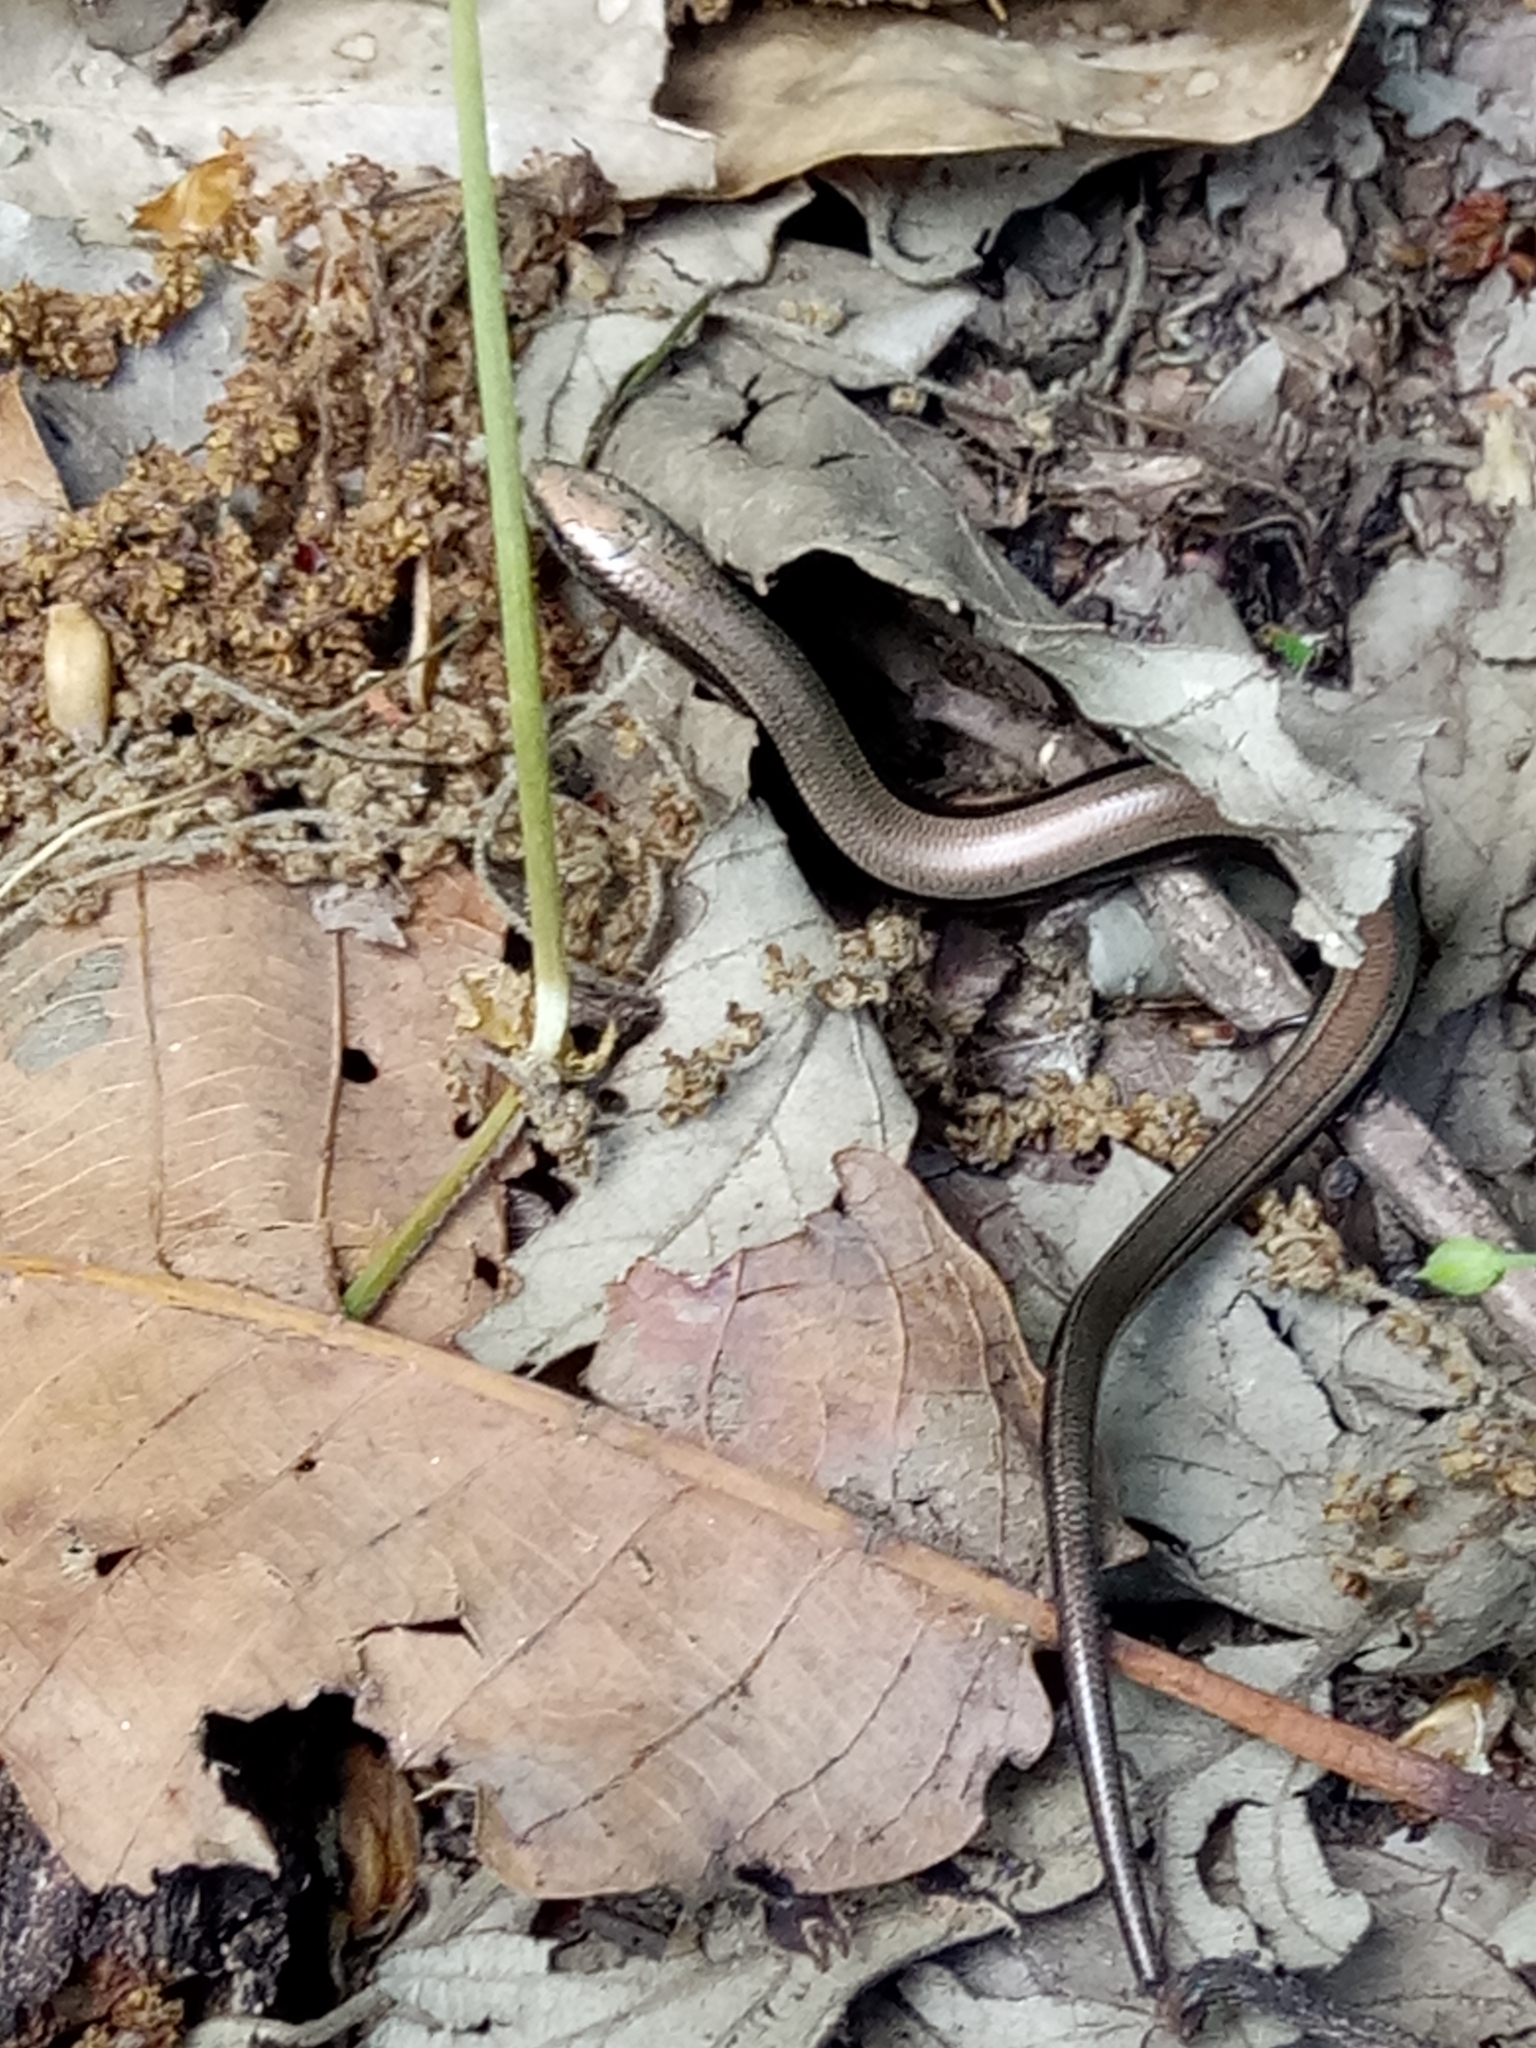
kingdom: Animalia
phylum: Chordata
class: Squamata
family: Scincidae
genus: Chalcides
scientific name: Chalcides mertensi
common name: Algerian three-toed skink
